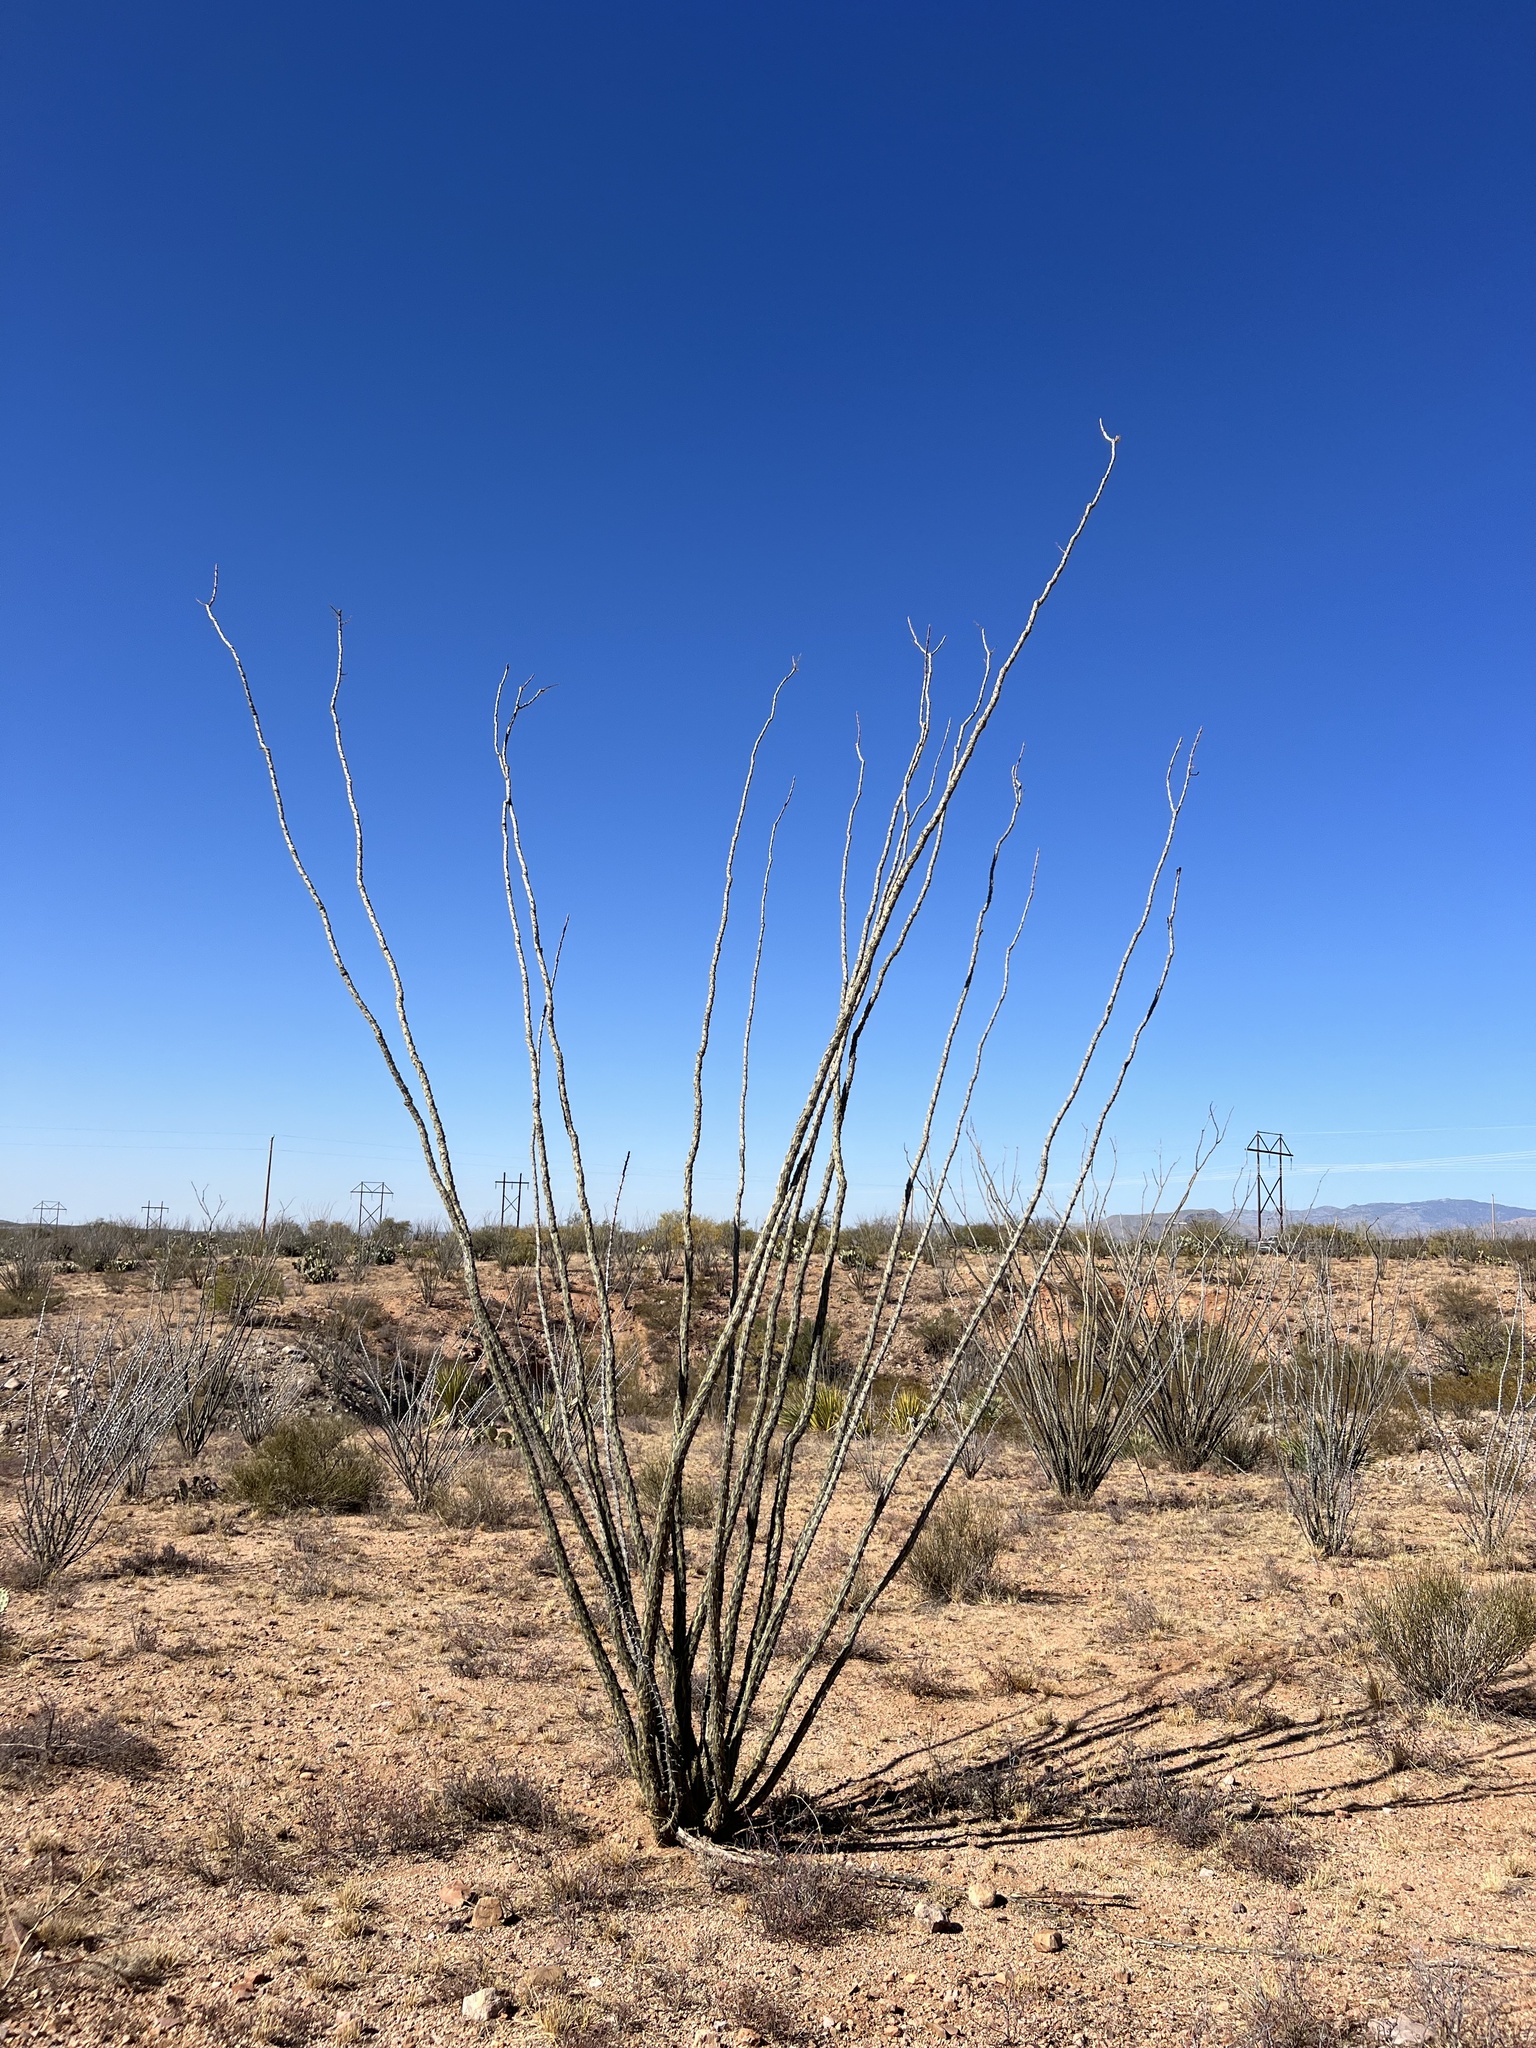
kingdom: Plantae
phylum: Tracheophyta
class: Magnoliopsida
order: Ericales
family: Fouquieriaceae
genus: Fouquieria
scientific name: Fouquieria splendens
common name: Vine-cactus
